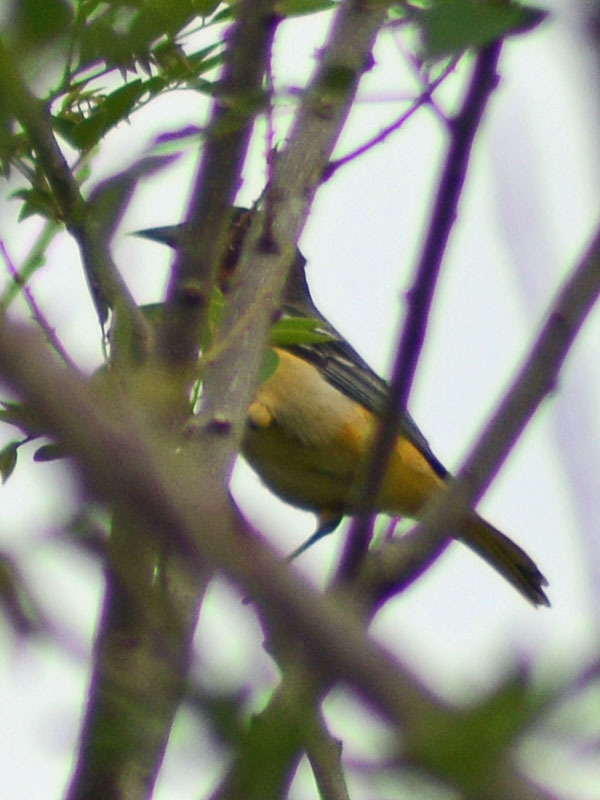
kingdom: Animalia
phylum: Chordata
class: Aves
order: Passeriformes
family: Icteridae
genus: Icterus
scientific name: Icterus galbula
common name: Baltimore oriole
